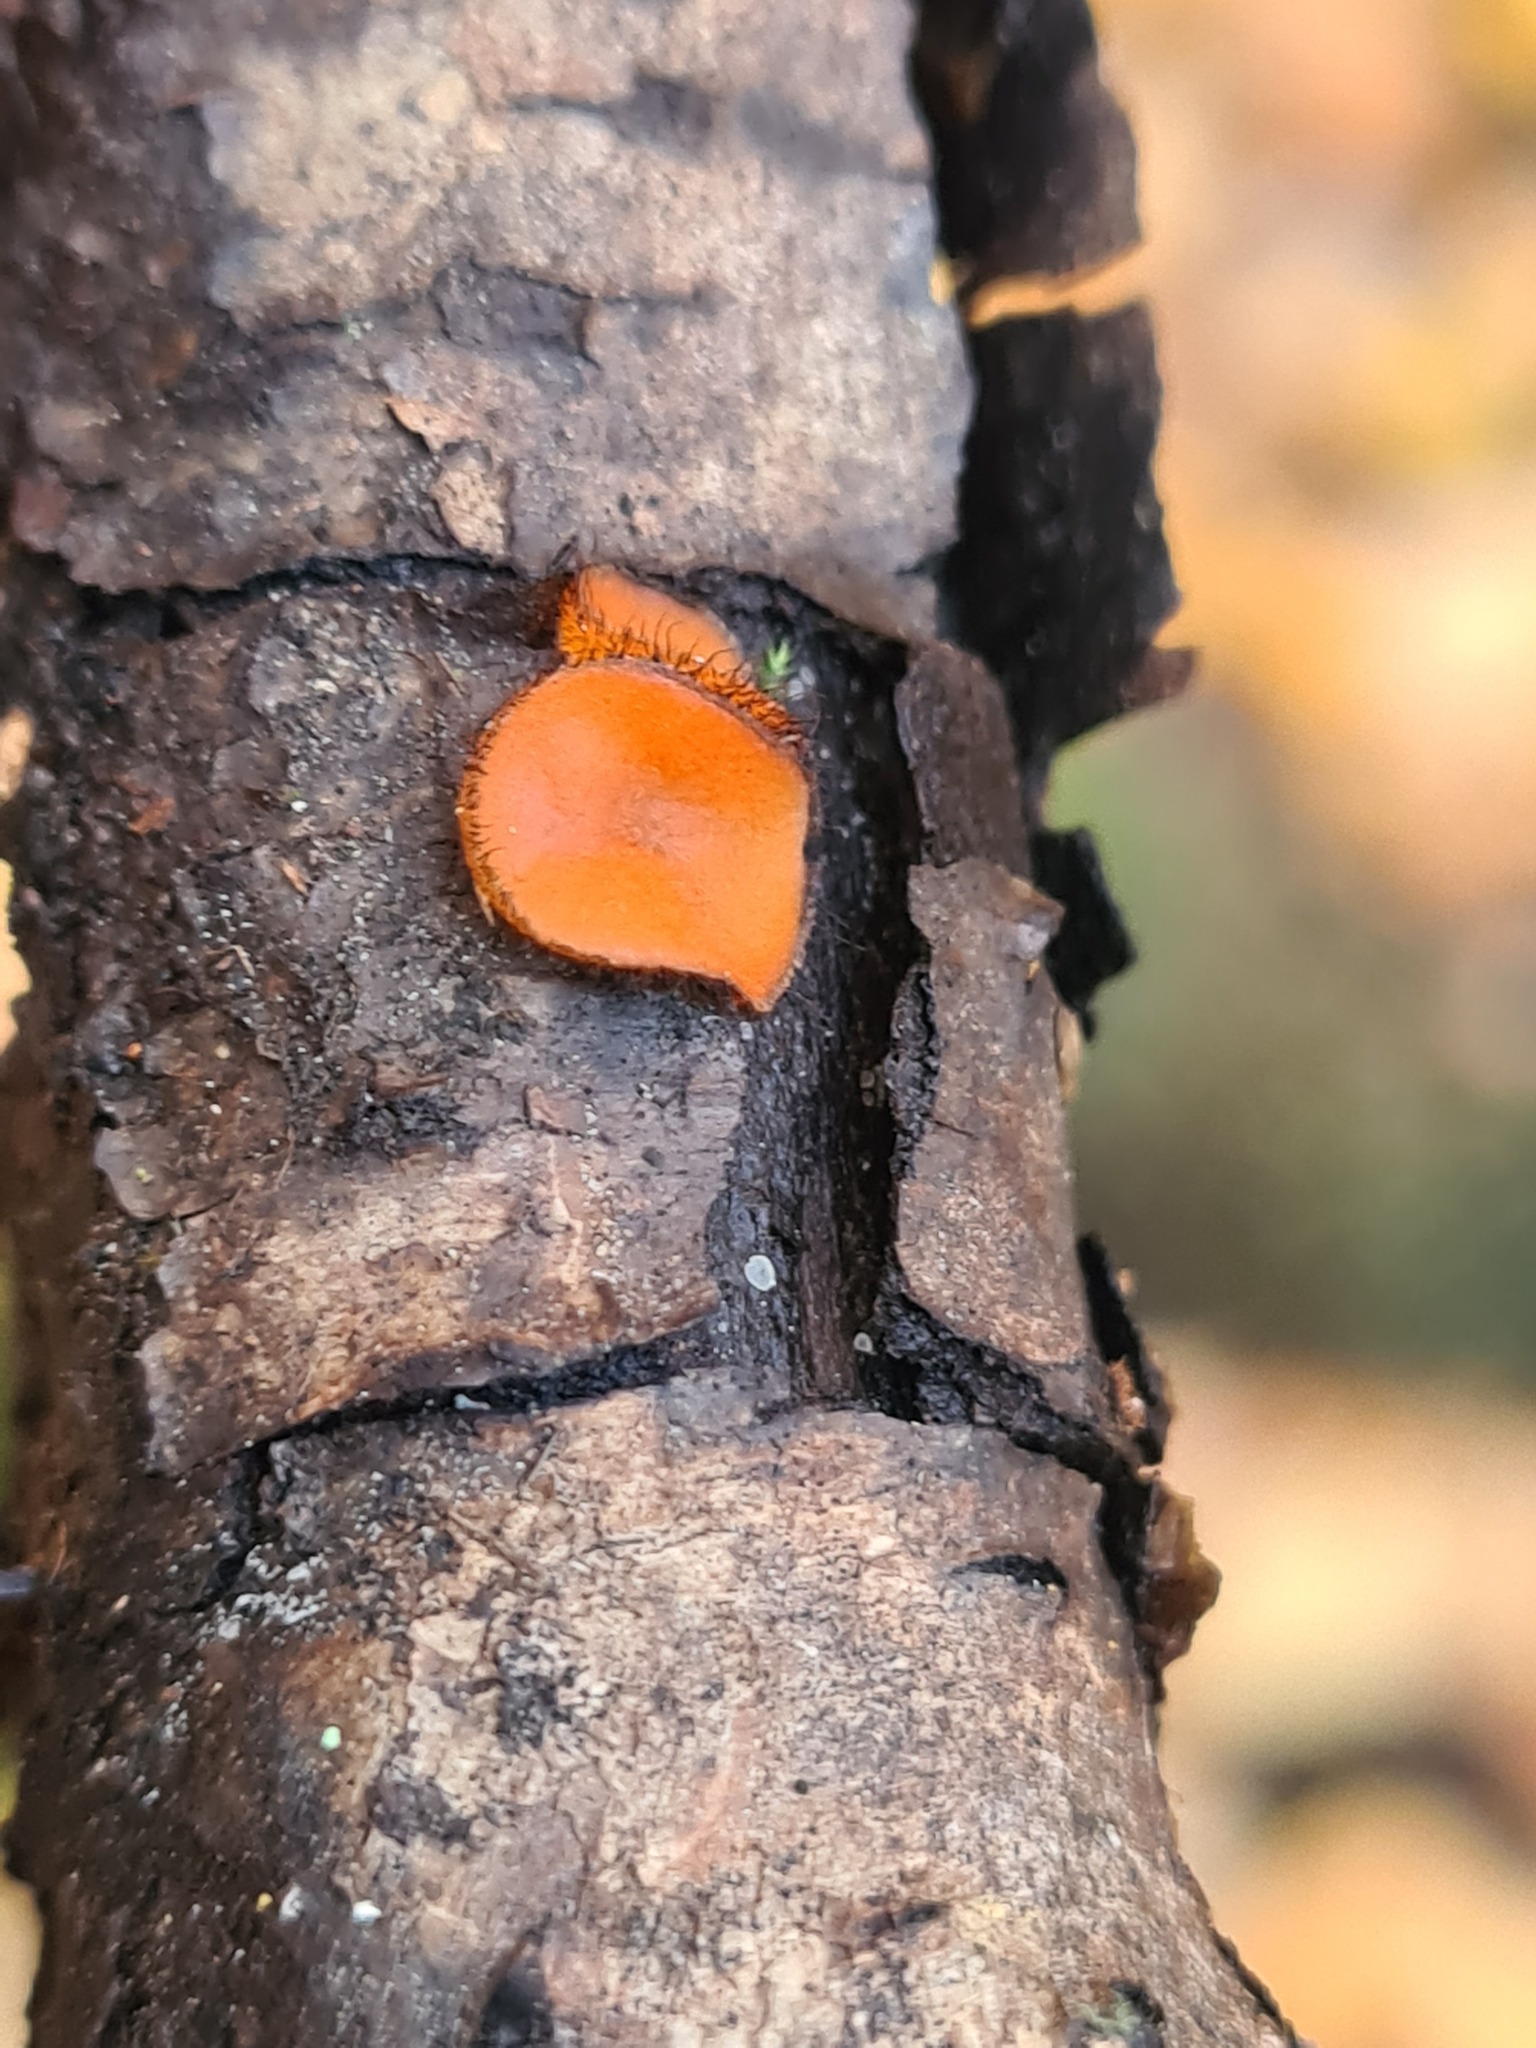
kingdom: Fungi
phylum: Ascomycota
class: Pezizomycetes
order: Pezizales
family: Pyronemataceae
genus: Scutellinia
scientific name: Scutellinia scutellata
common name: Common eyelash
